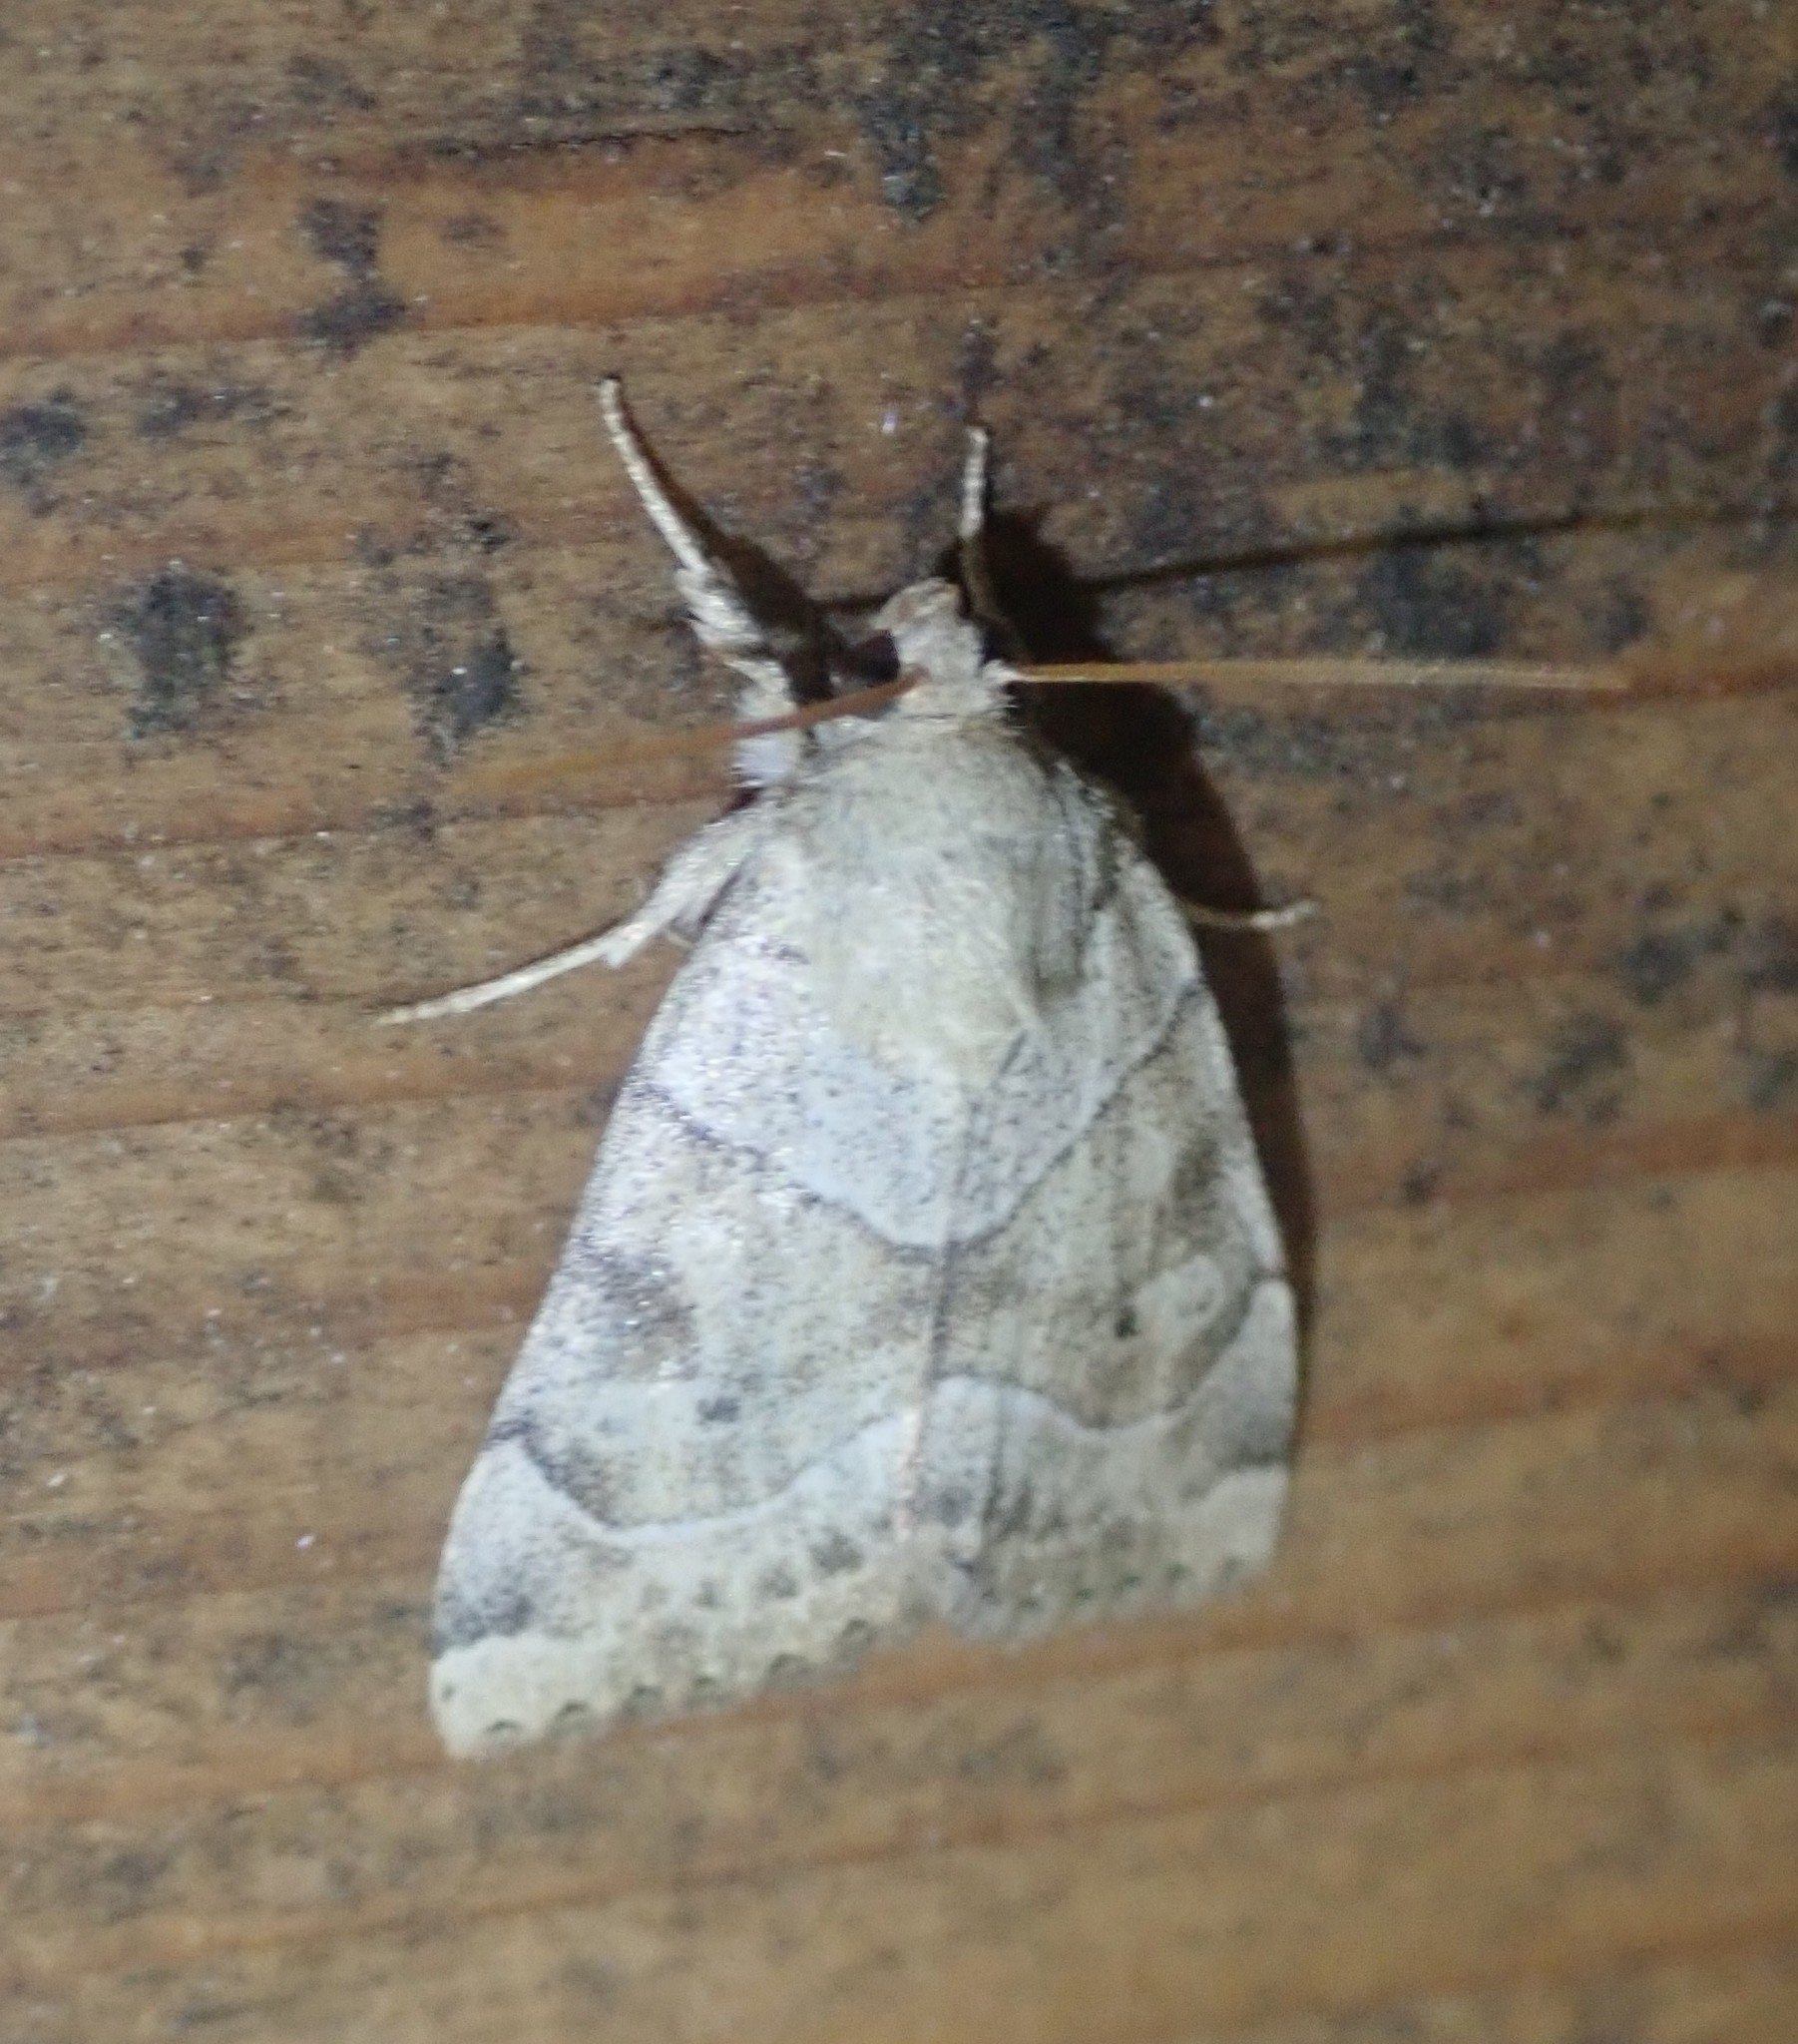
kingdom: Animalia
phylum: Arthropoda
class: Insecta
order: Lepidoptera
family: Noctuidae
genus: Cosmia
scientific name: Cosmia trapezina
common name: Dun-bar
